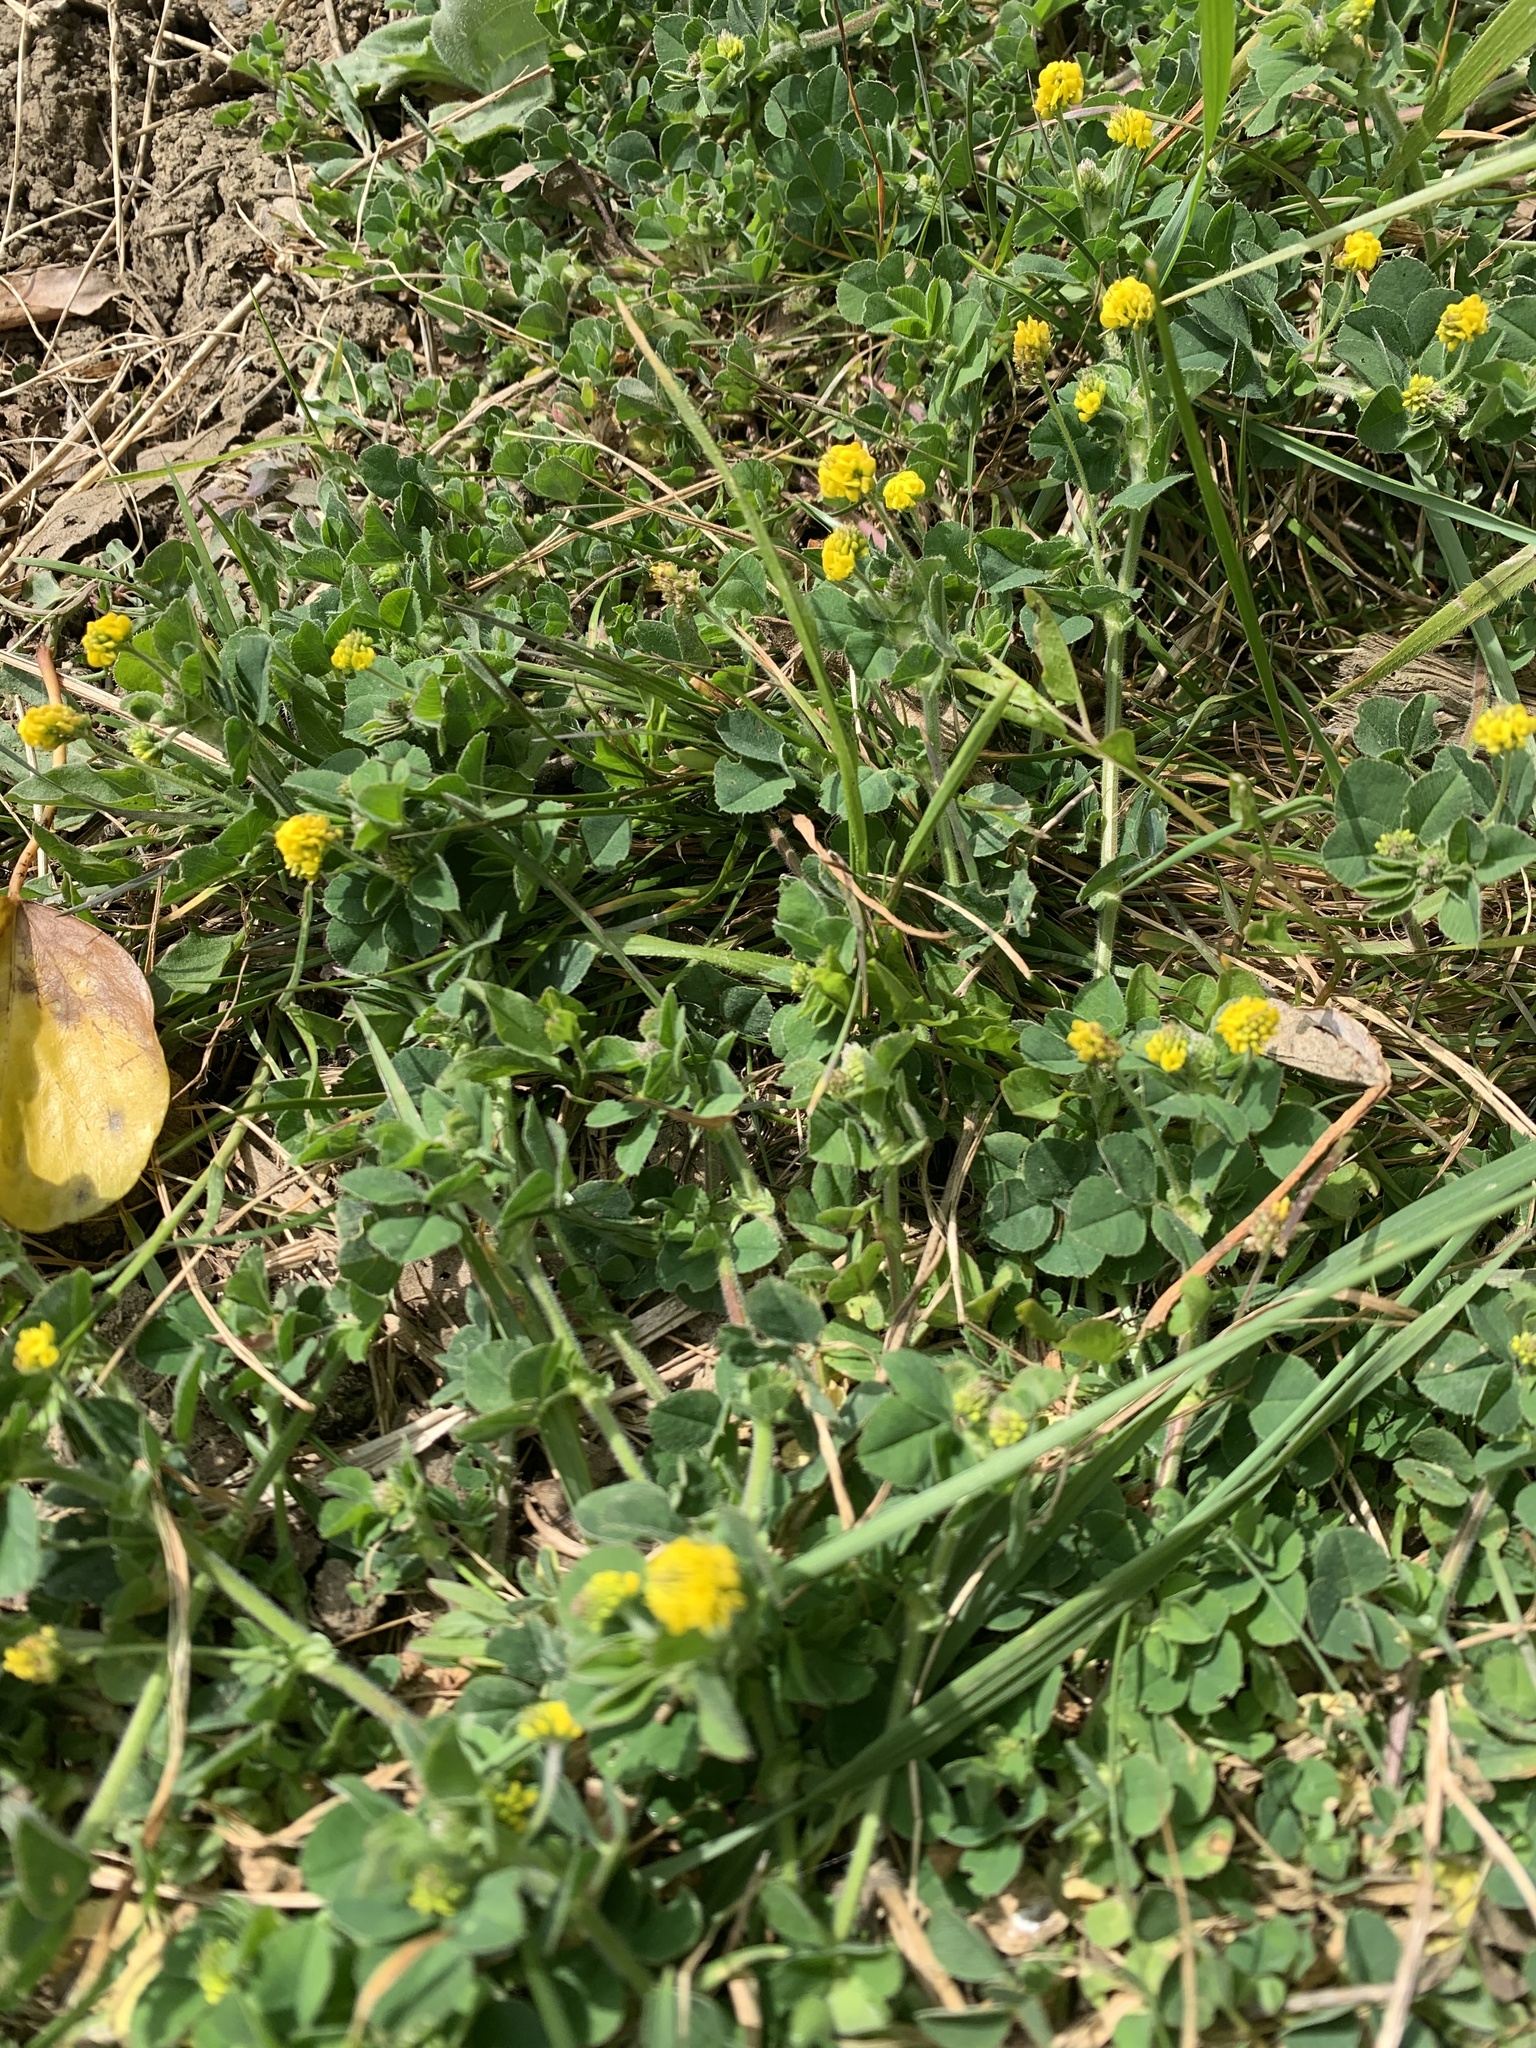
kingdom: Plantae
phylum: Tracheophyta
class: Magnoliopsida
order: Fabales
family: Fabaceae
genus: Medicago
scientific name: Medicago lupulina
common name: Black medick
